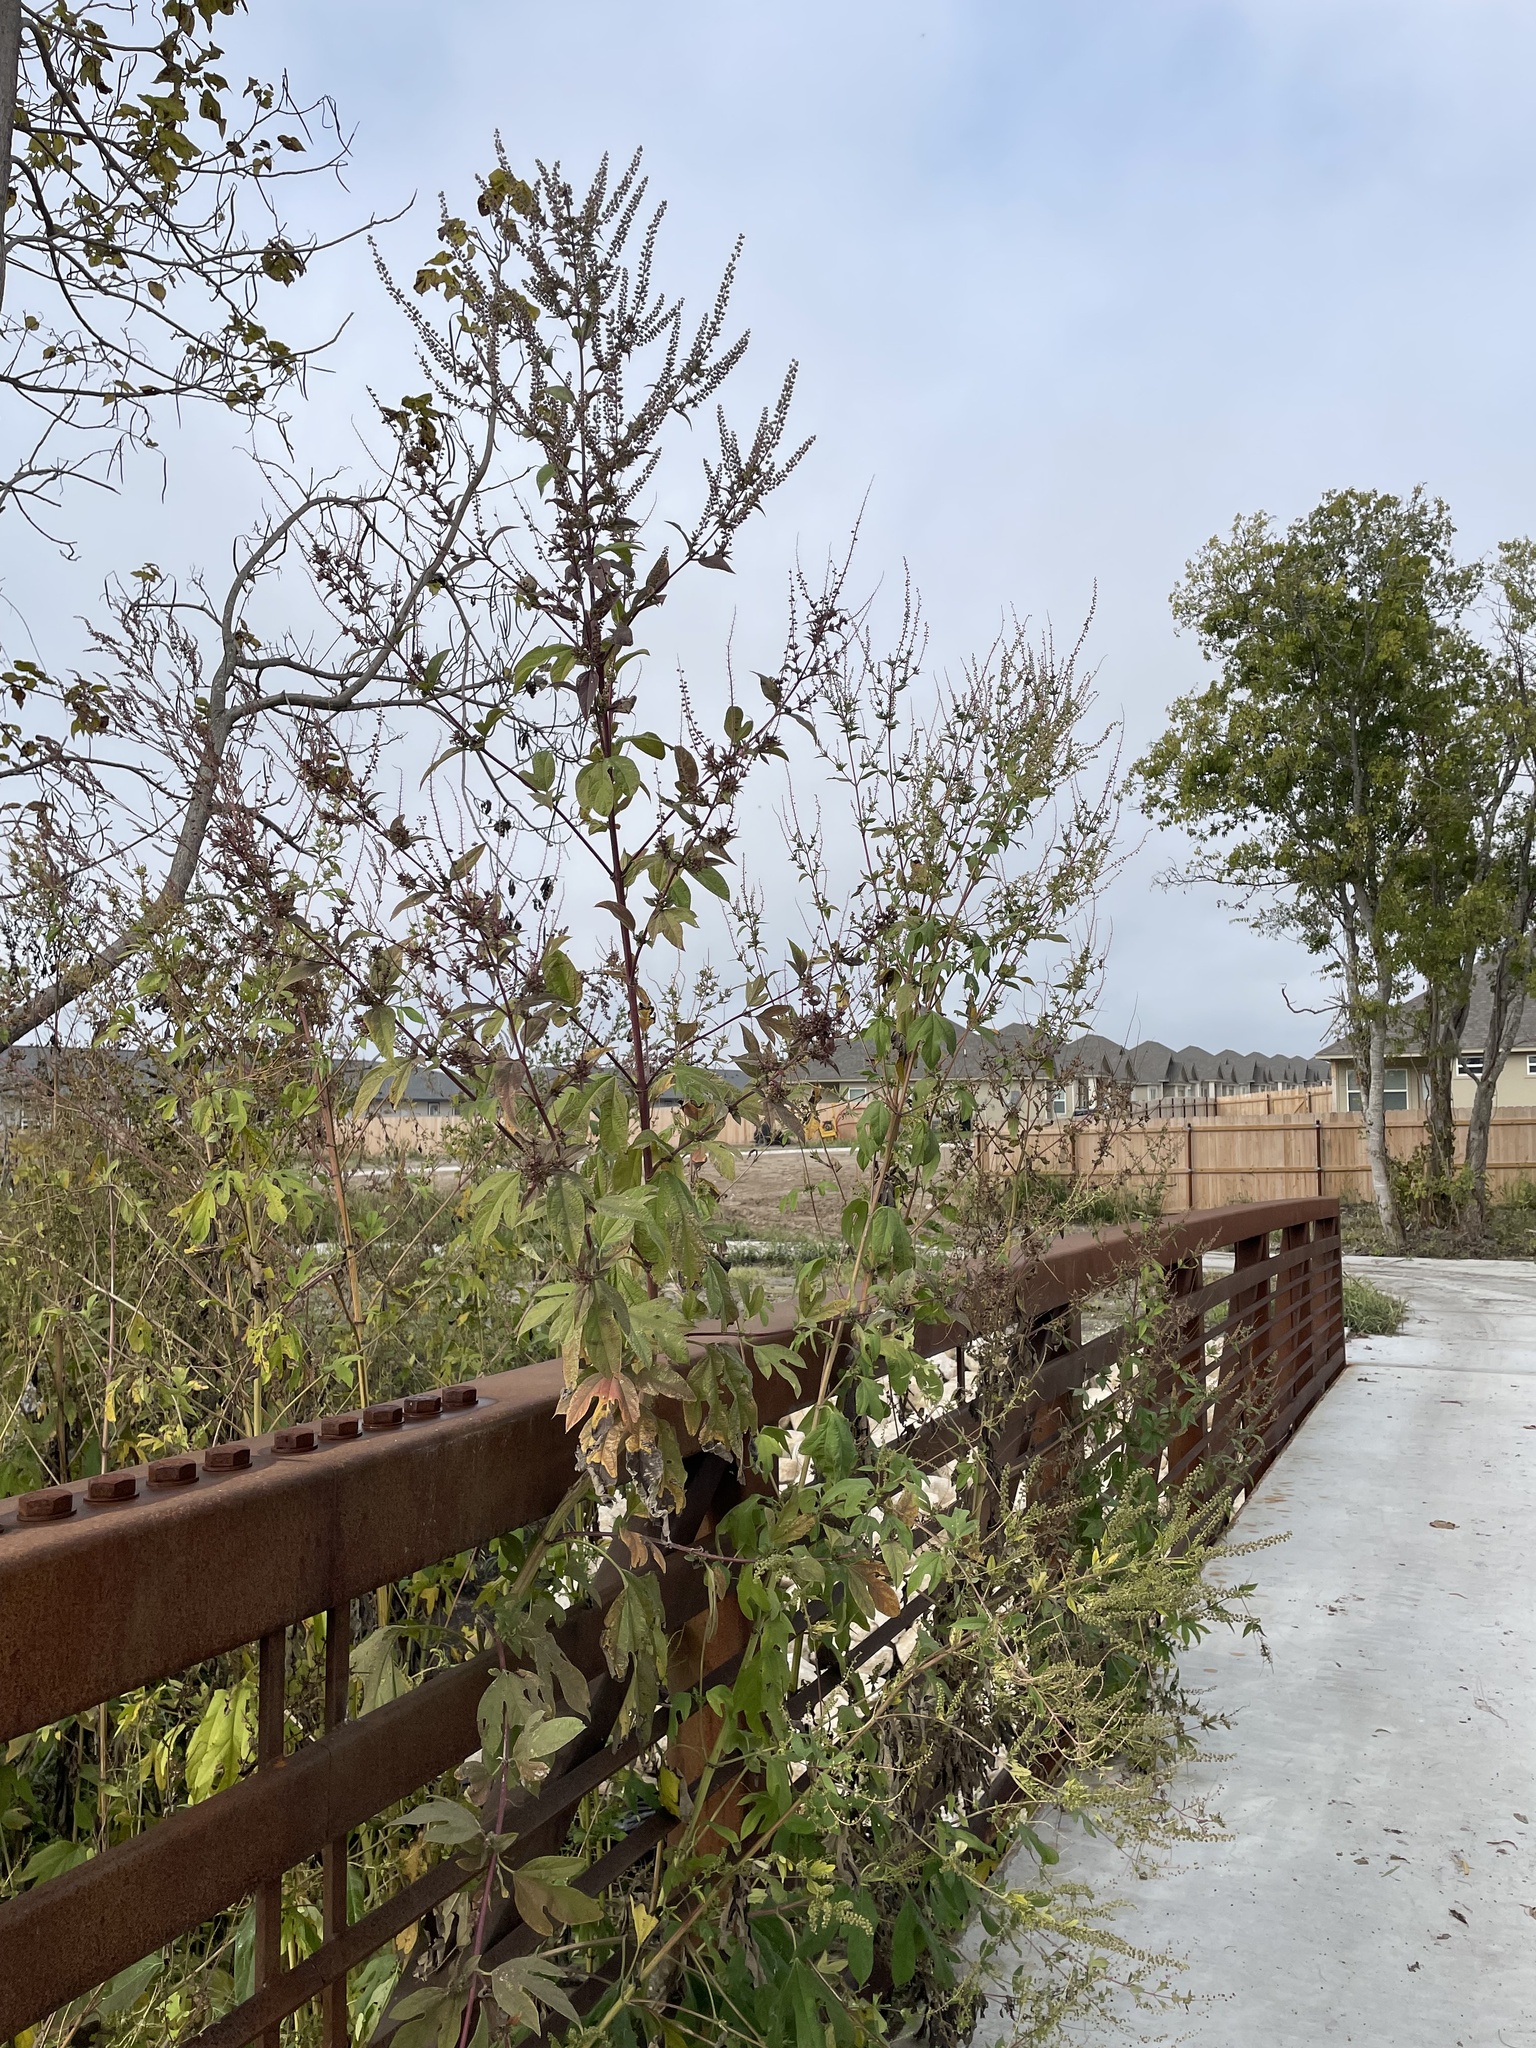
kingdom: Plantae
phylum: Tracheophyta
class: Magnoliopsida
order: Asterales
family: Asteraceae
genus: Ambrosia
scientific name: Ambrosia trifida
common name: Giant ragweed
